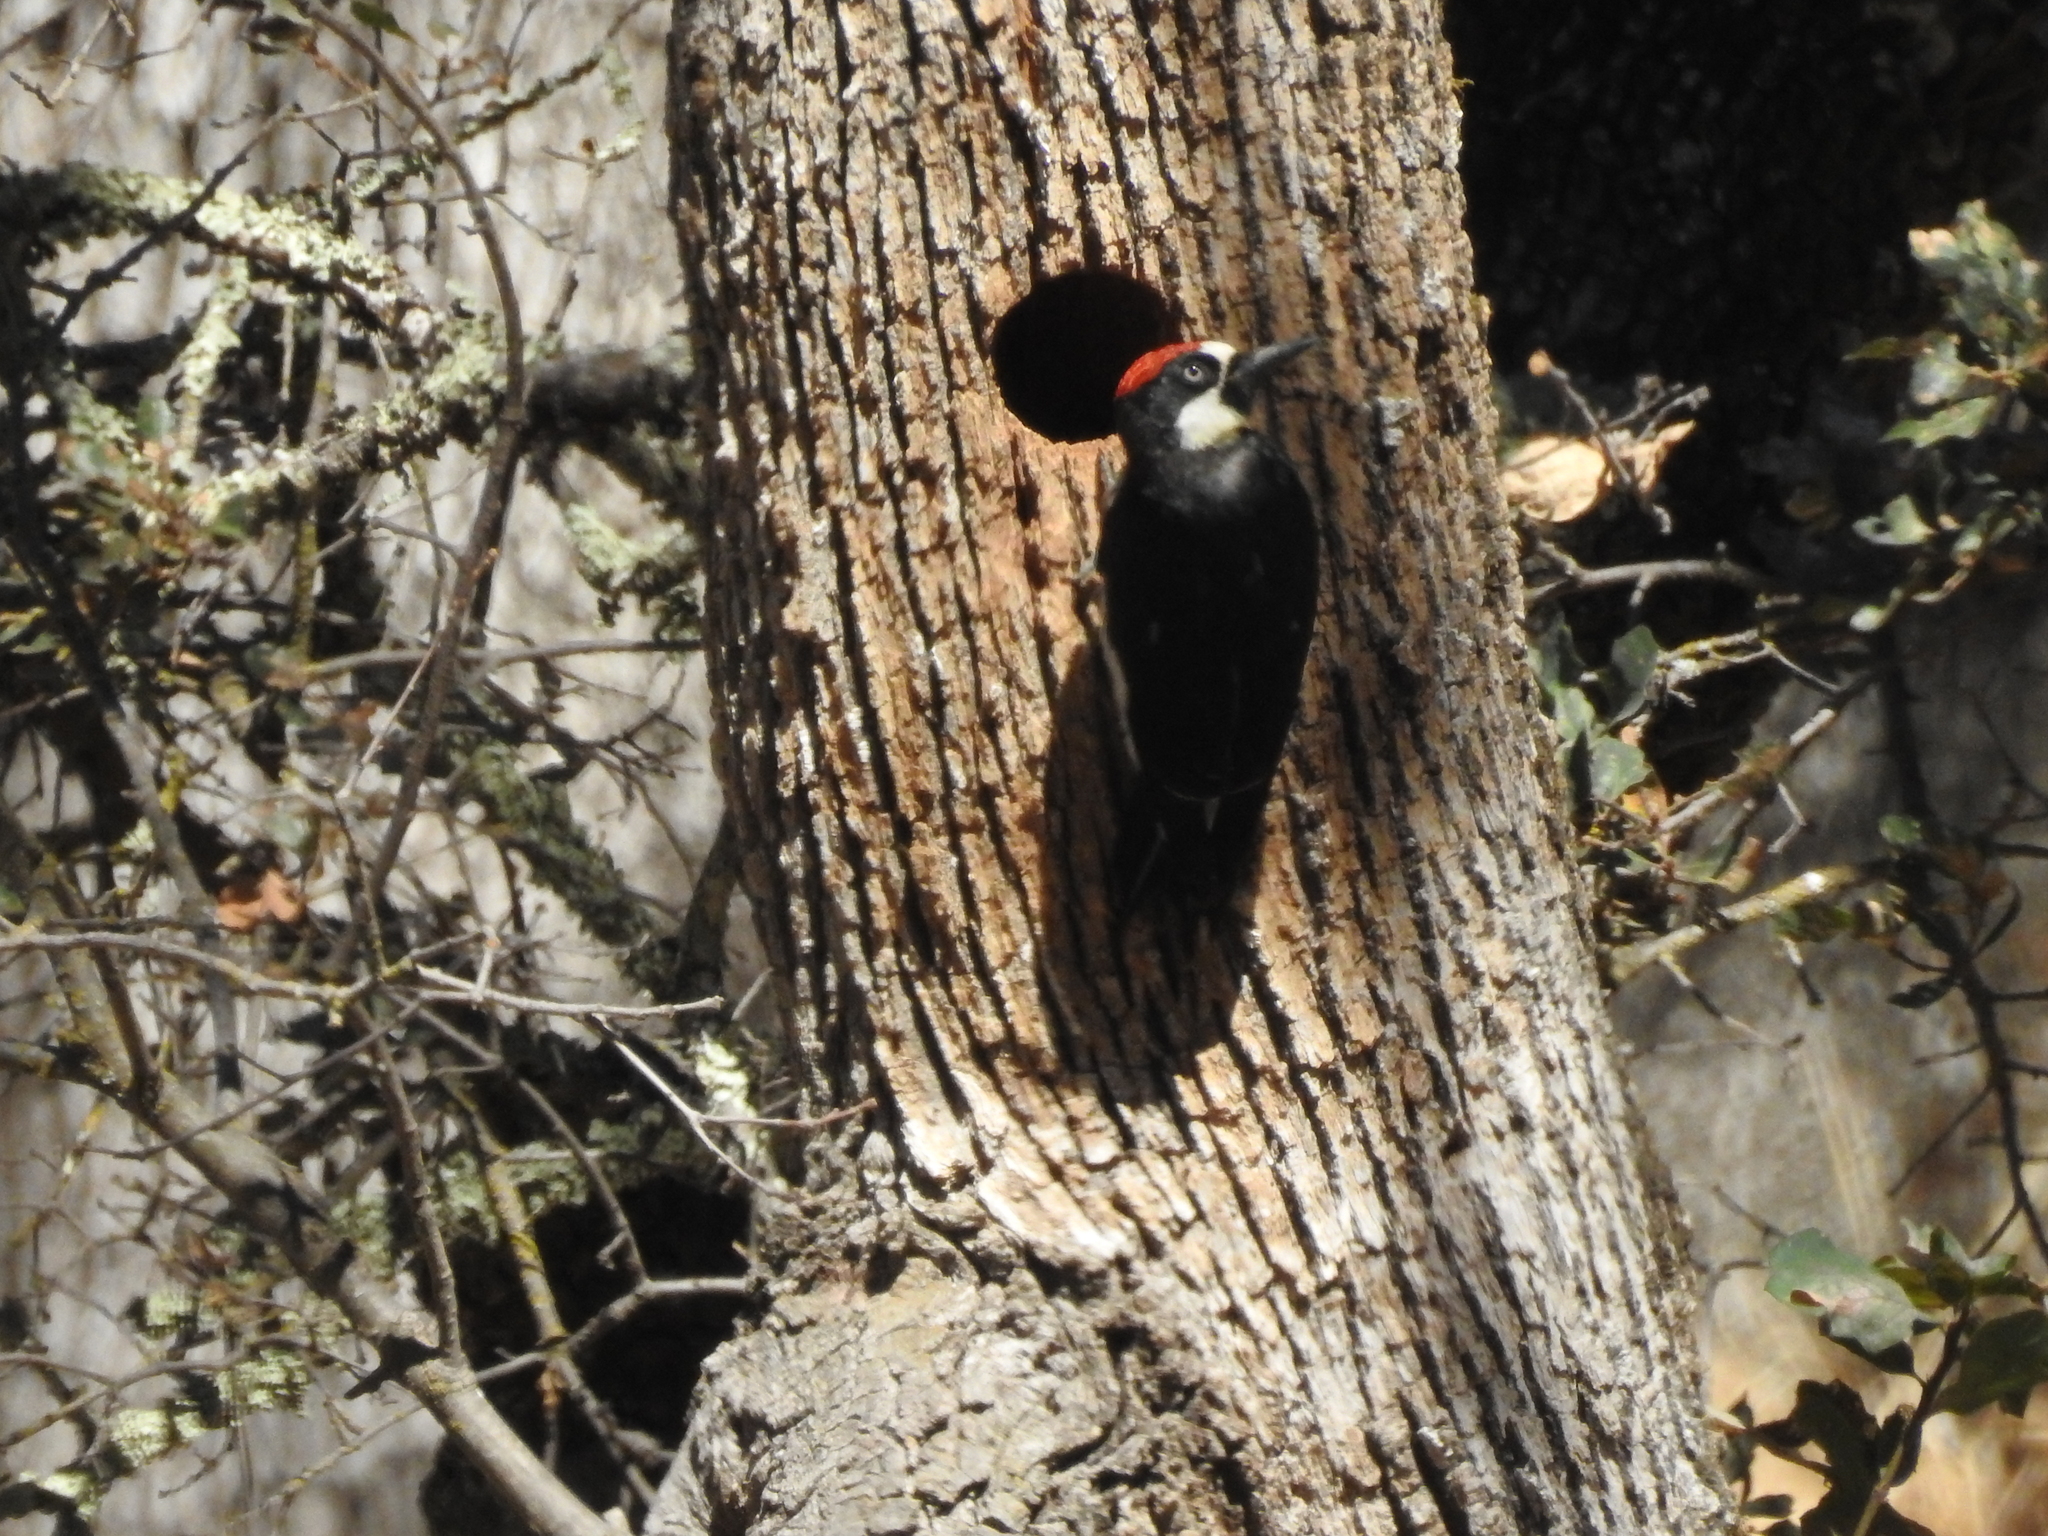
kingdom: Animalia
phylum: Chordata
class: Aves
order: Piciformes
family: Picidae
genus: Melanerpes
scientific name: Melanerpes formicivorus
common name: Acorn woodpecker
